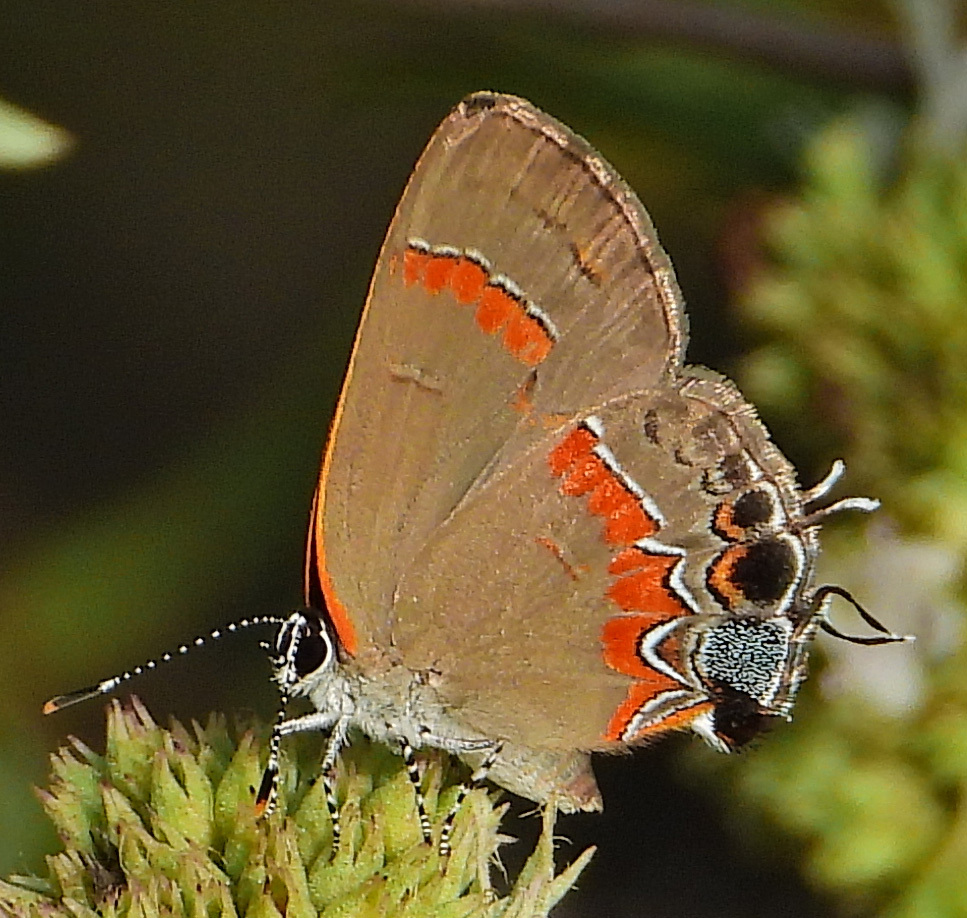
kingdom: Animalia
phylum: Arthropoda
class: Insecta
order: Lepidoptera
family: Lycaenidae
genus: Calycopis
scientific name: Calycopis cecrops
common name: Red-banded hairstreak
